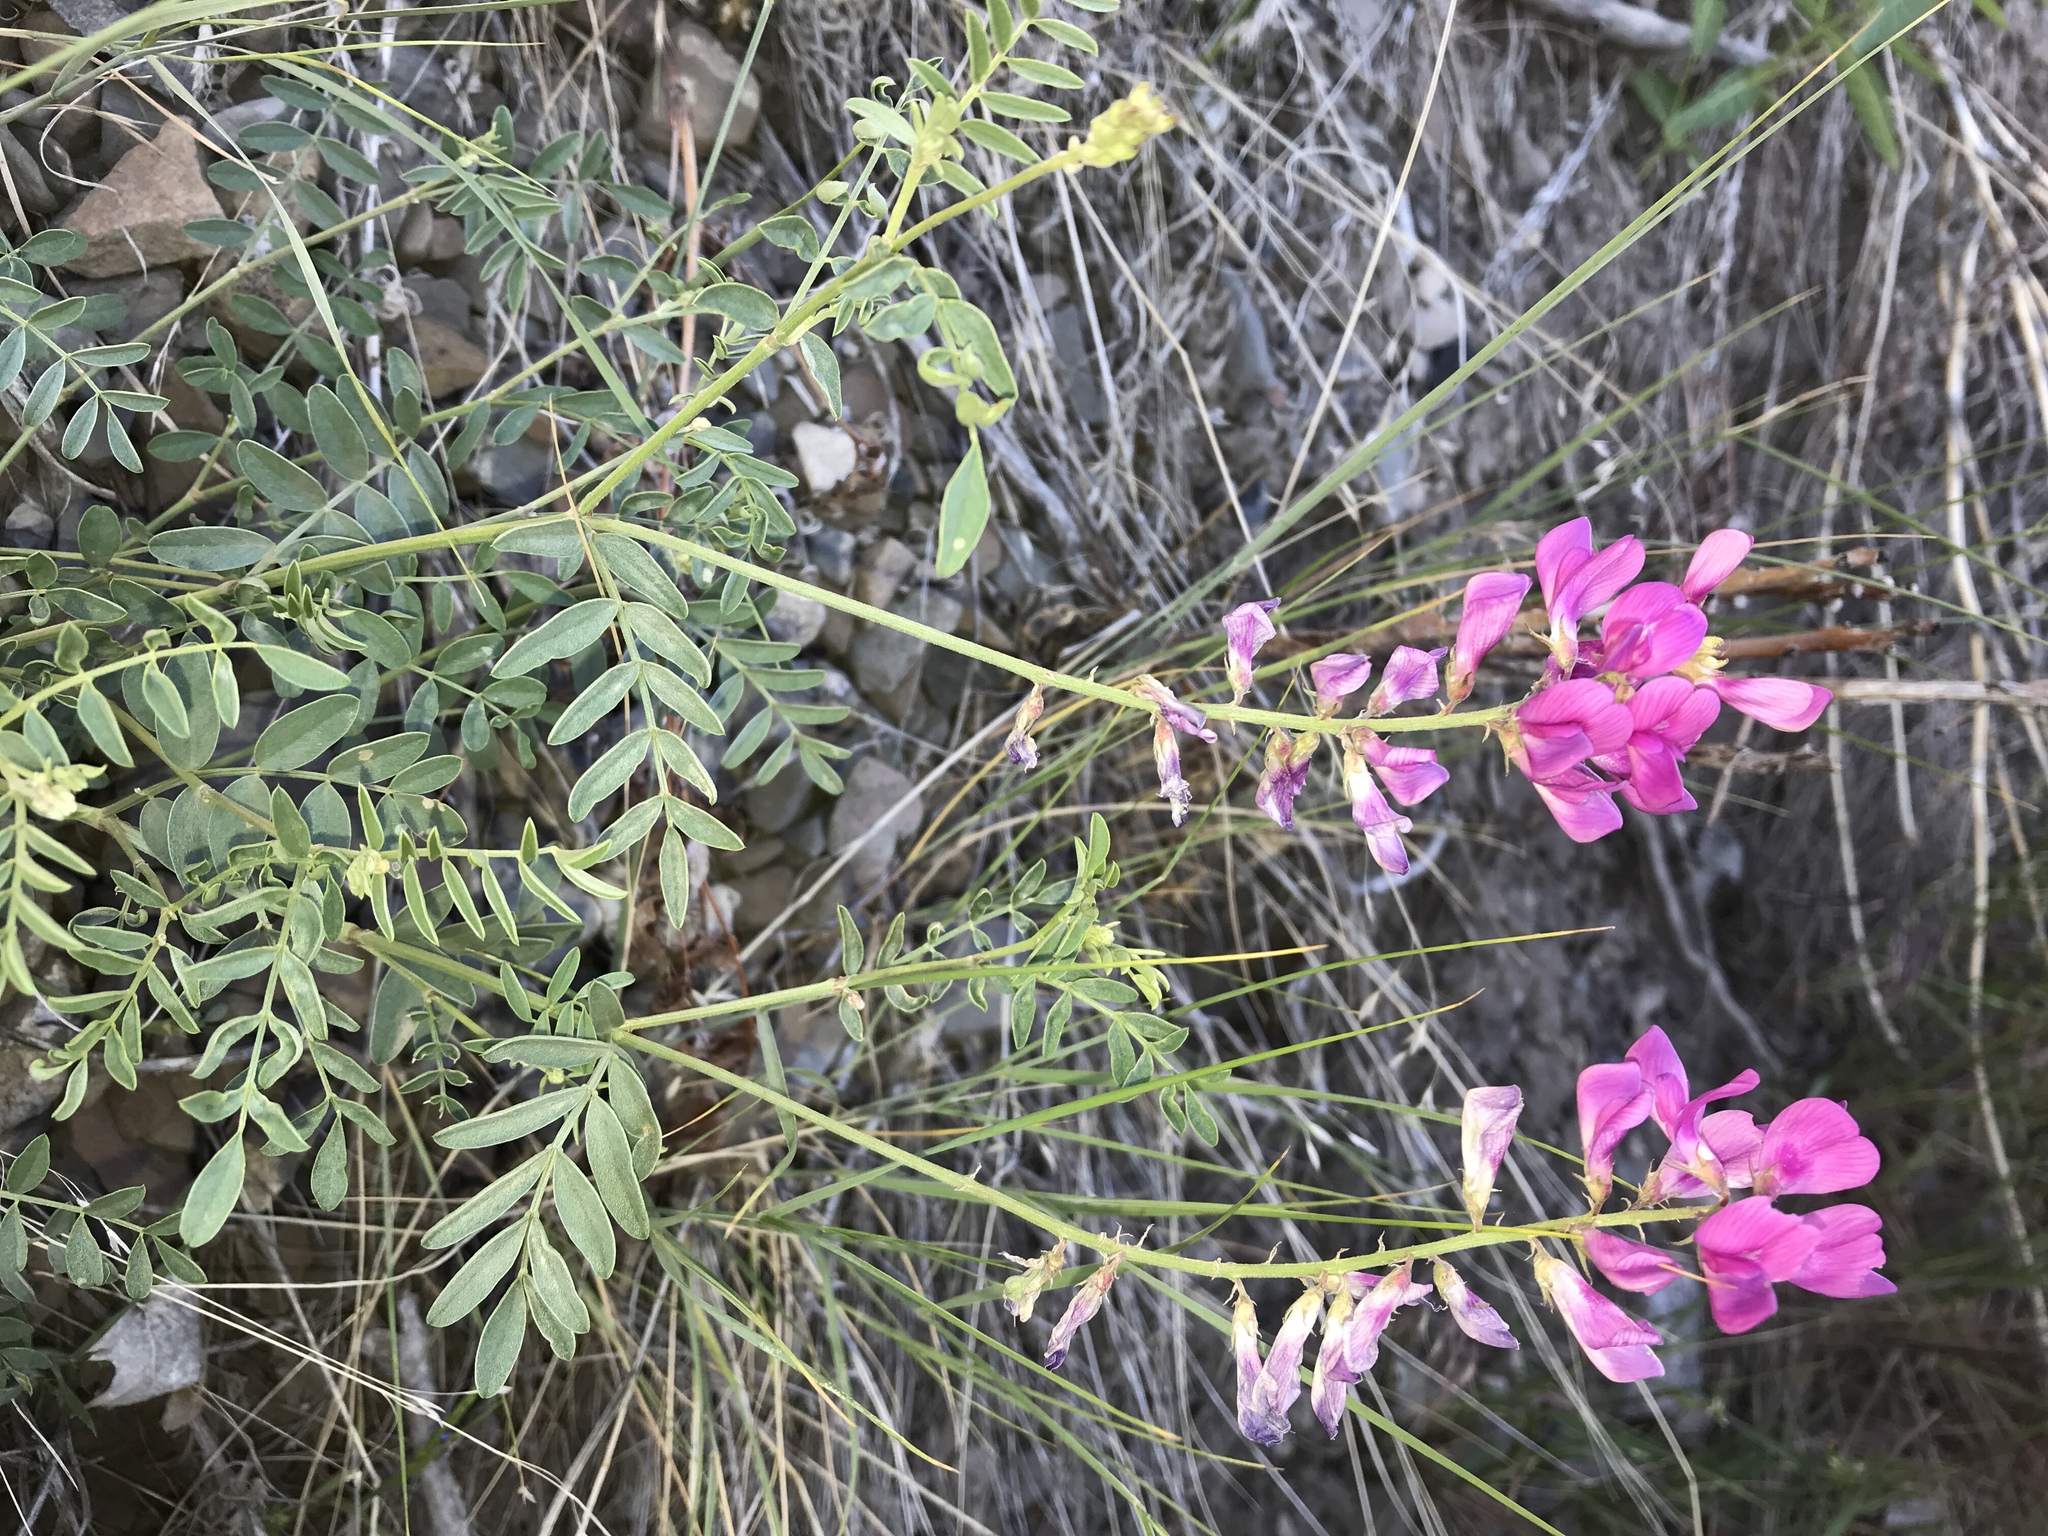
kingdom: Plantae
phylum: Tracheophyta
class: Magnoliopsida
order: Fabales
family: Fabaceae
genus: Hedysarum
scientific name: Hedysarum boreale
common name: Northern sweet-vetch
